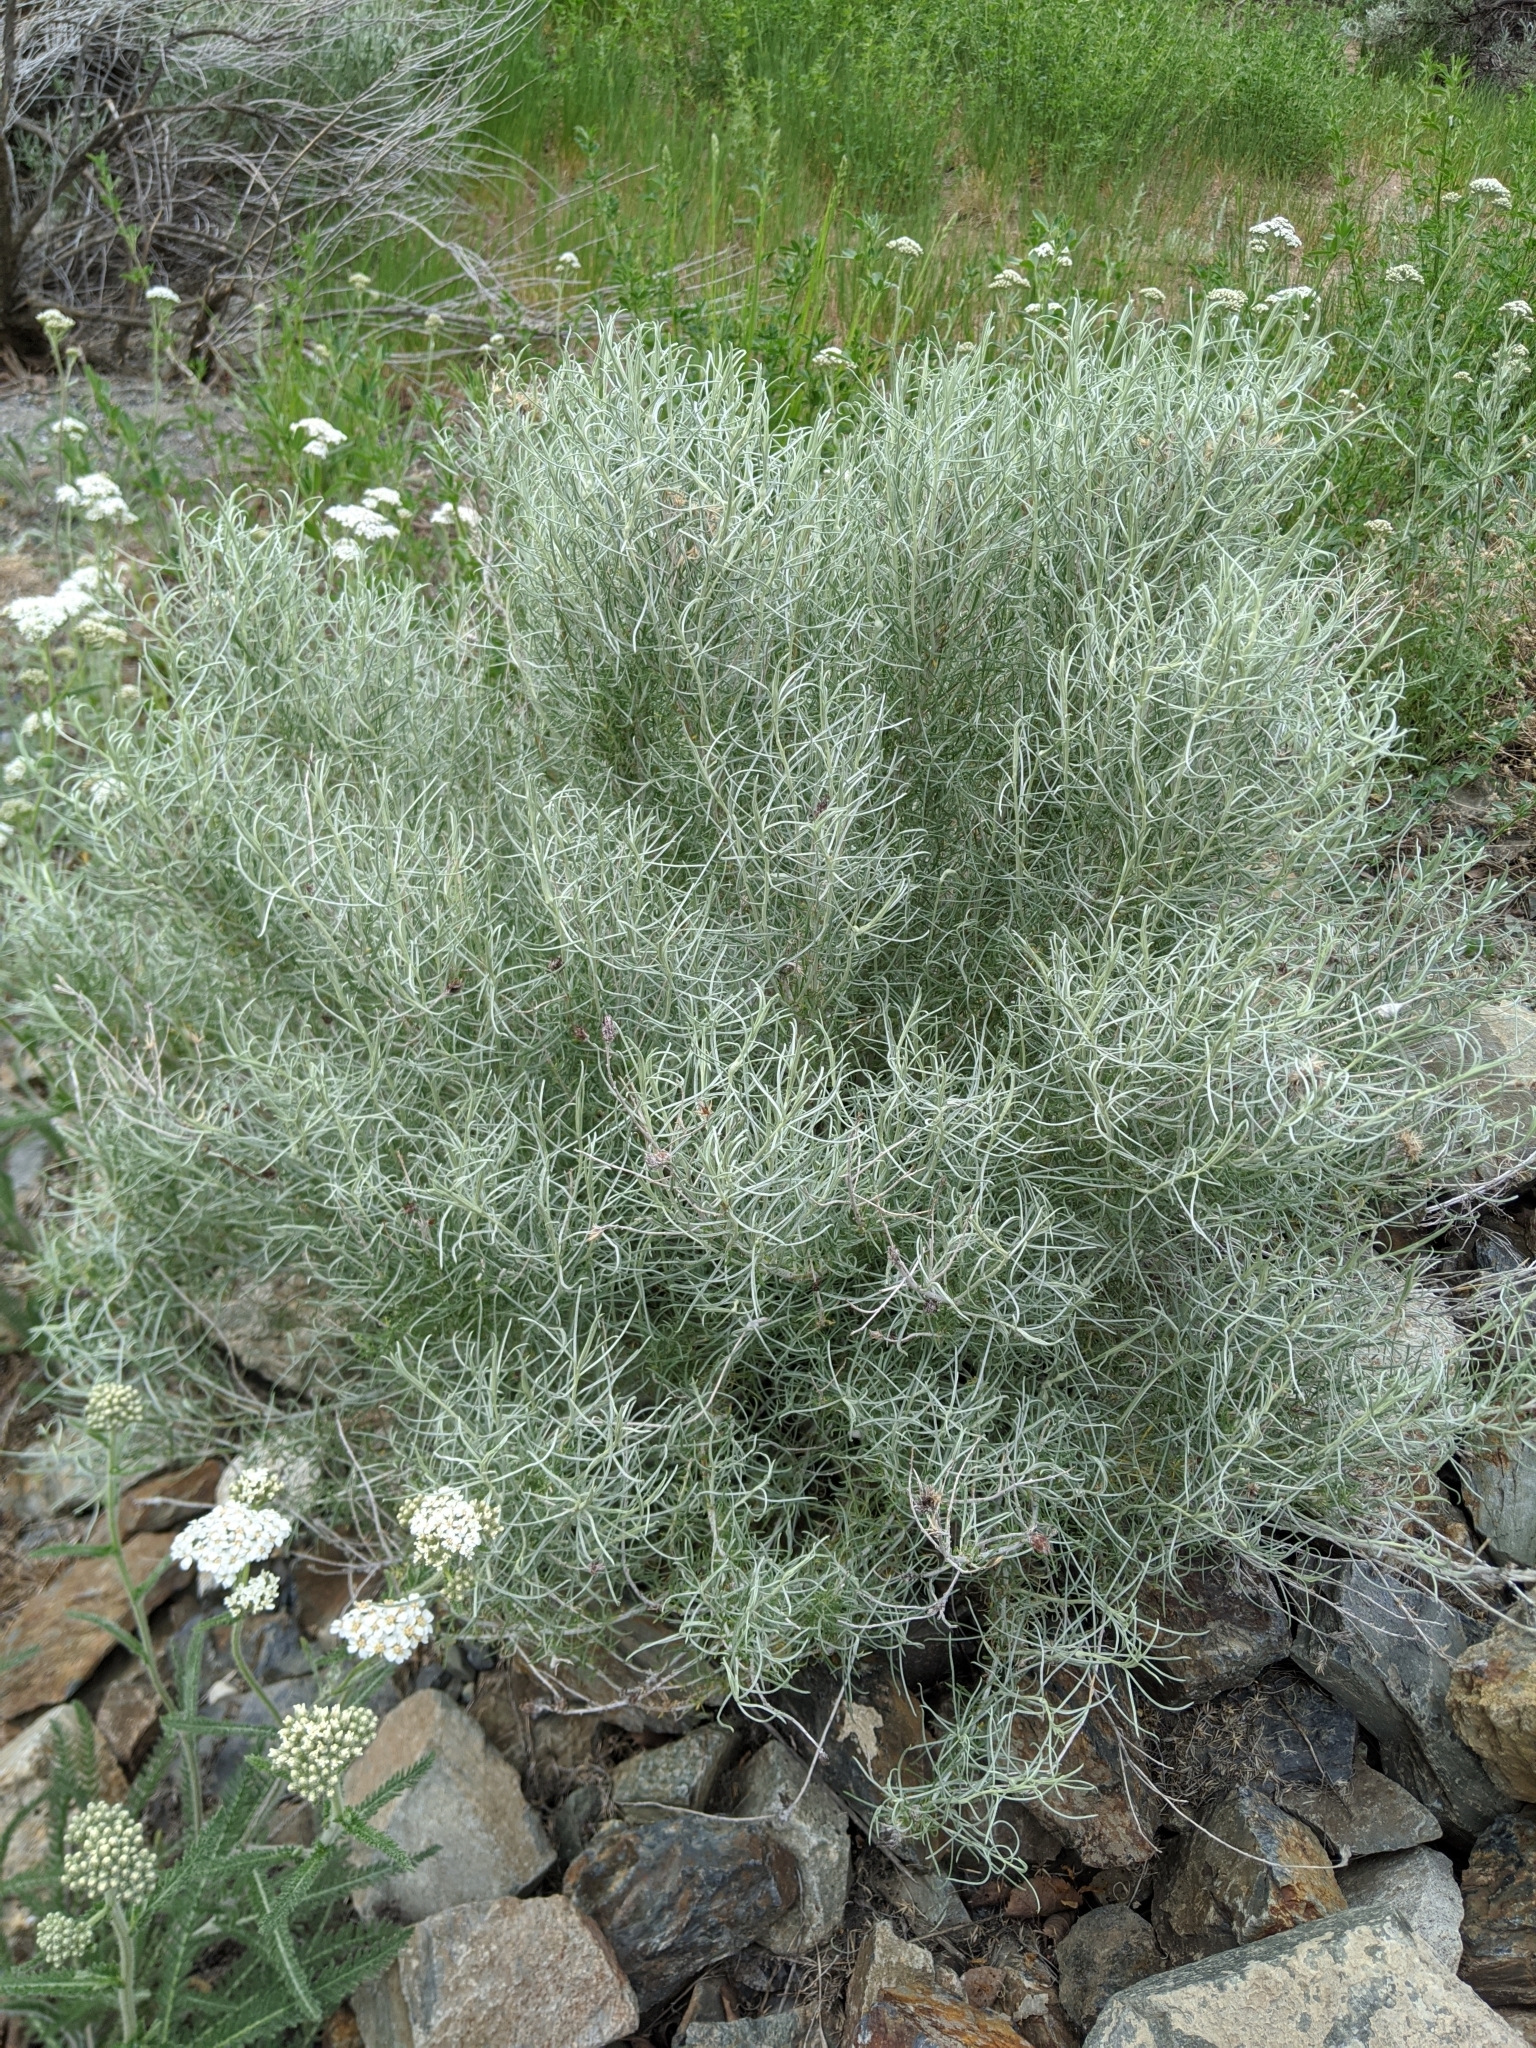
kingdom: Plantae
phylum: Tracheophyta
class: Magnoliopsida
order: Asterales
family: Asteraceae
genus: Ericameria
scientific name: Ericameria nauseosa
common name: Rubber rabbitbrush
